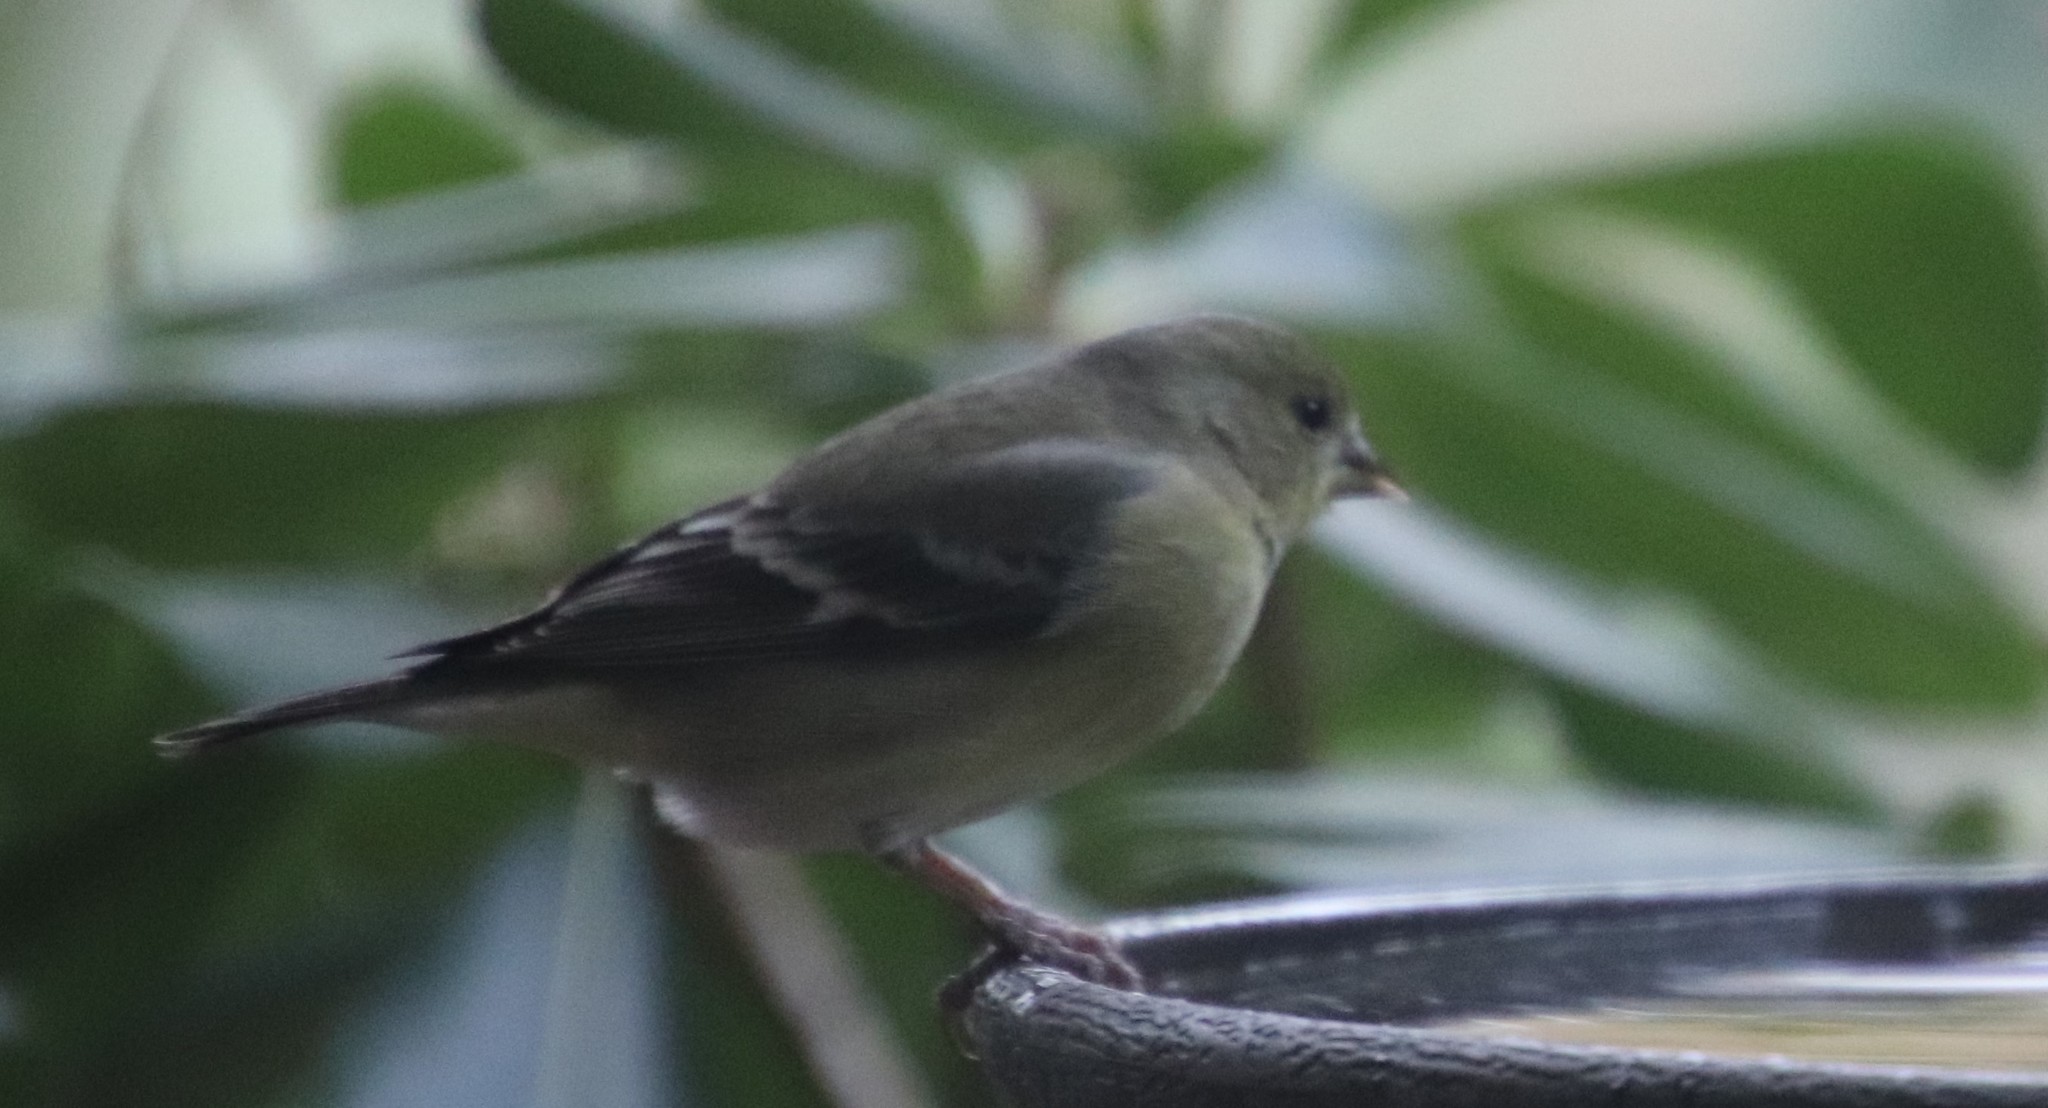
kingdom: Animalia
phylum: Chordata
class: Aves
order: Passeriformes
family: Fringillidae
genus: Spinus
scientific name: Spinus psaltria
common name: Lesser goldfinch
